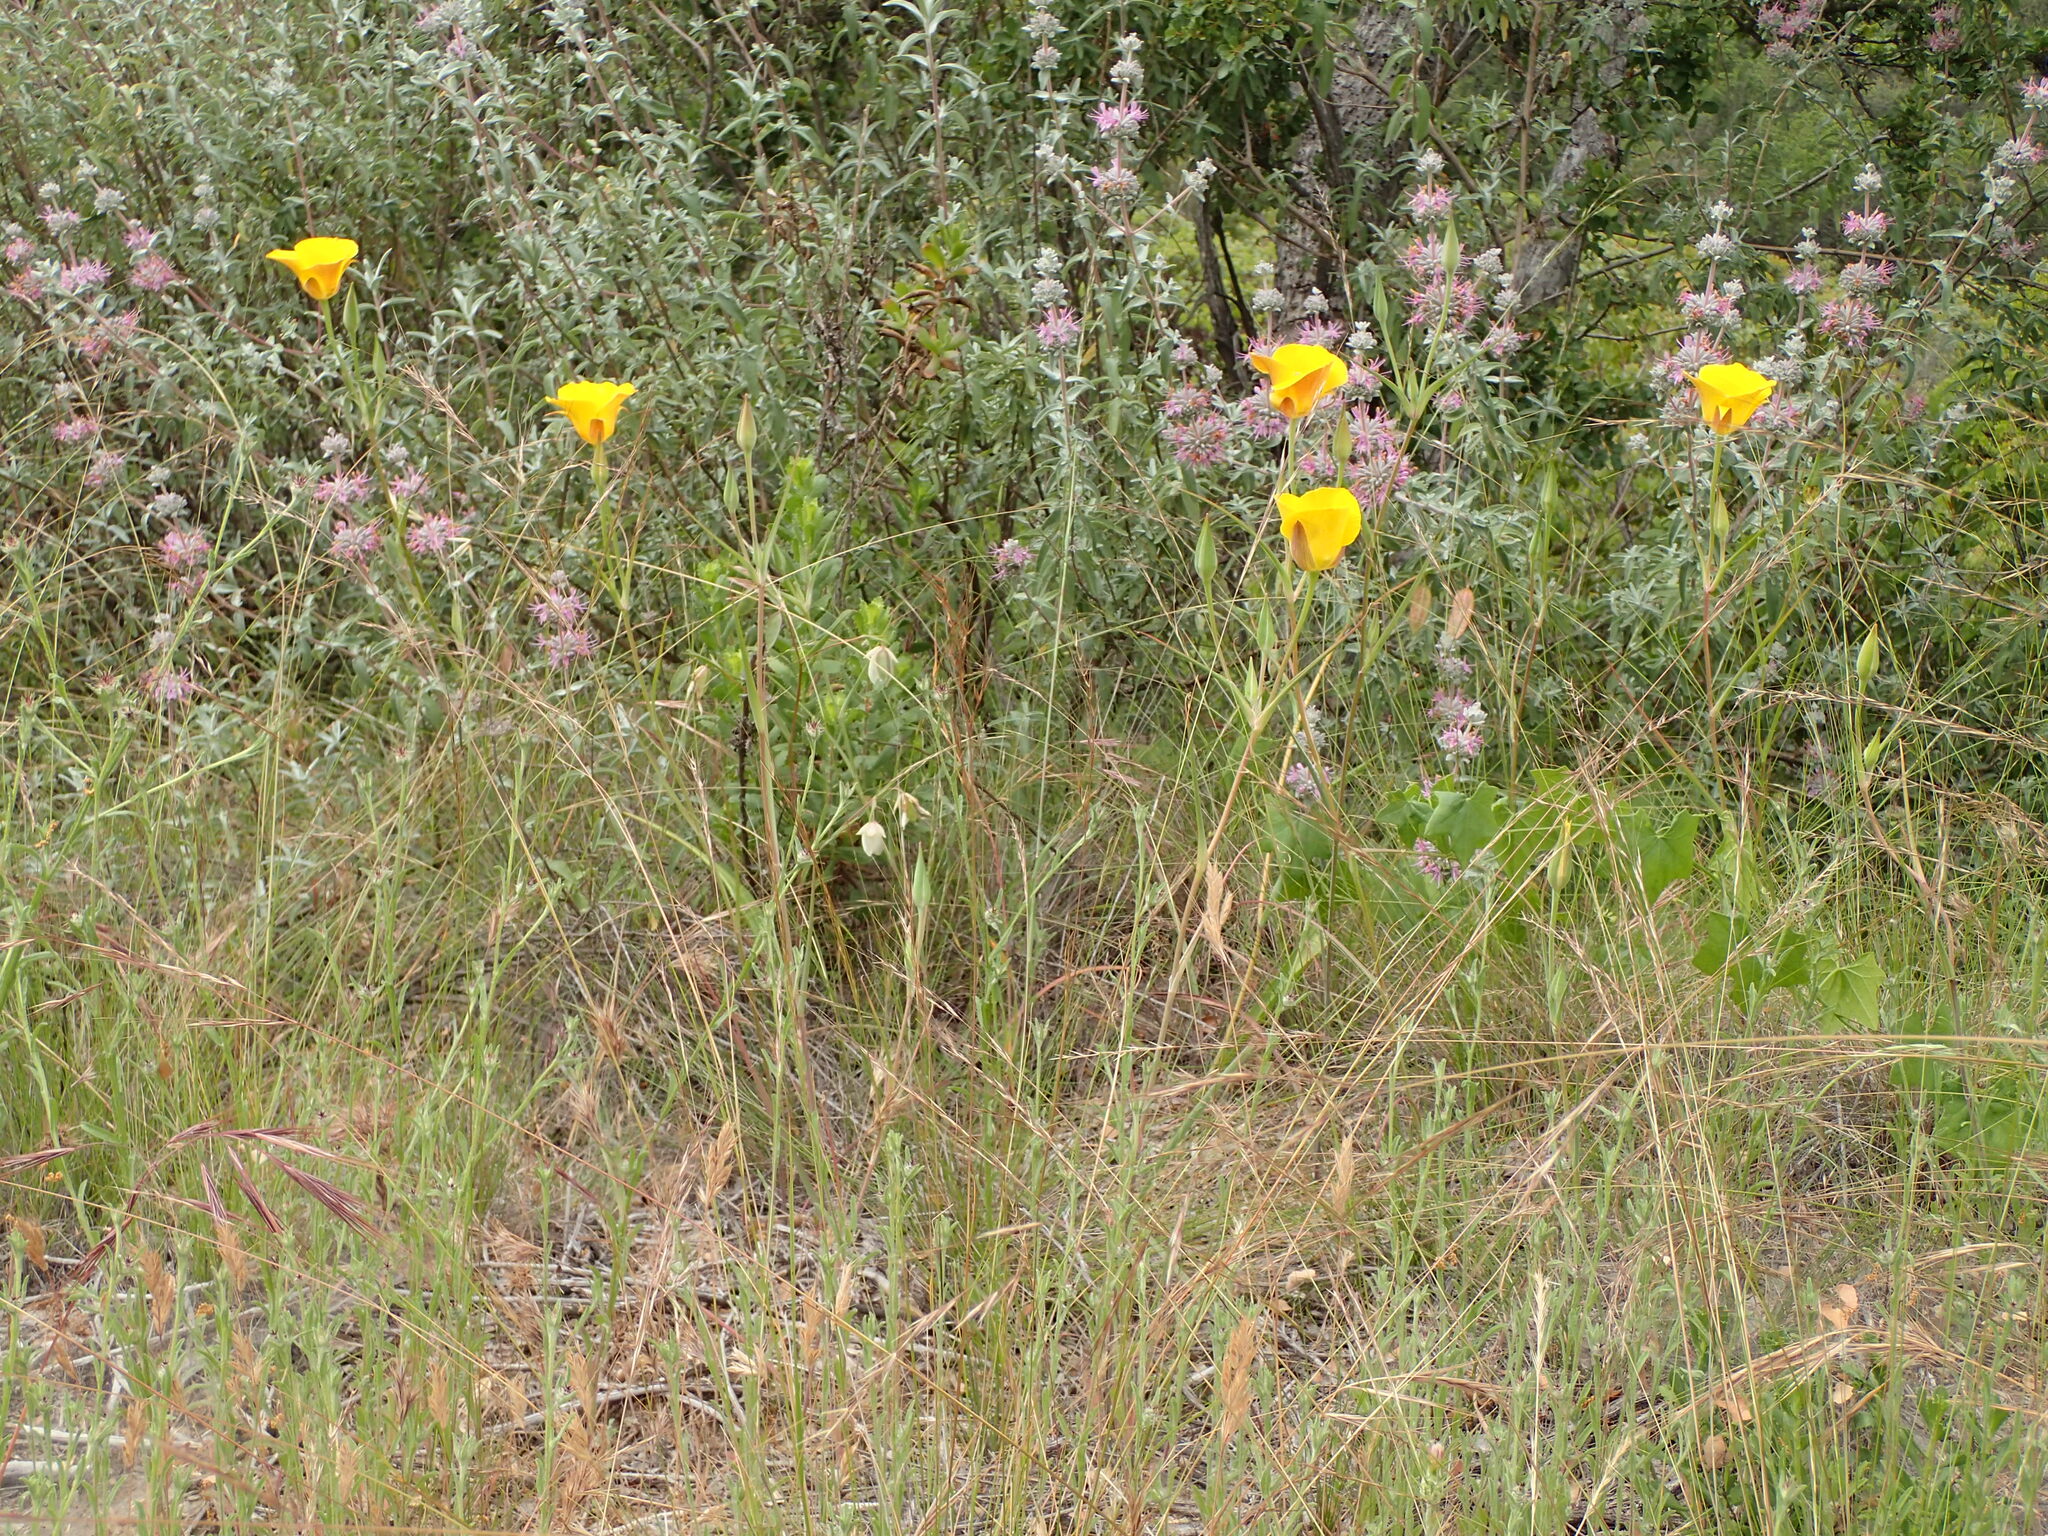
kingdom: Plantae
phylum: Tracheophyta
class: Liliopsida
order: Liliales
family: Liliaceae
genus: Calochortus
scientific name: Calochortus clavatus
